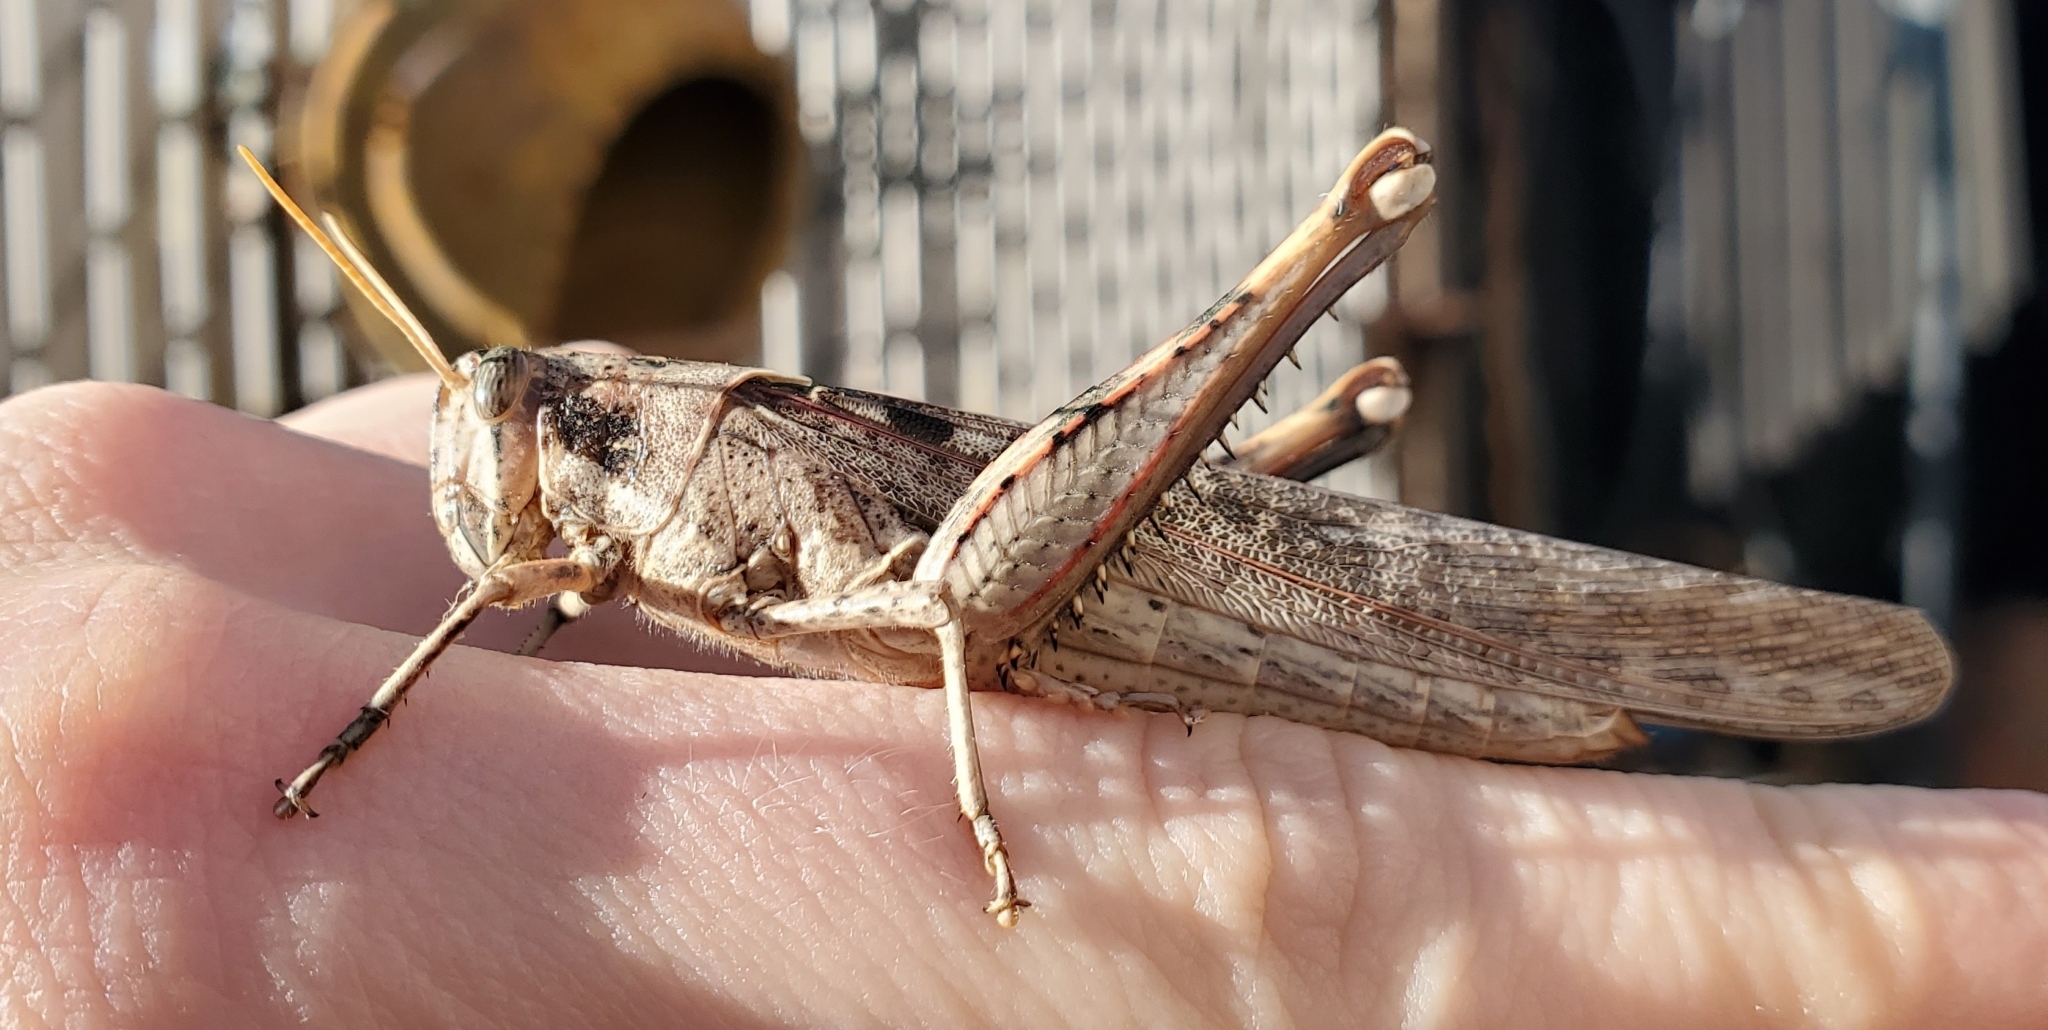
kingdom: Animalia
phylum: Arthropoda
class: Insecta
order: Orthoptera
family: Acrididae
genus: Schistocerca
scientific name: Schistocerca nitens
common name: Vagrant grasshopper
